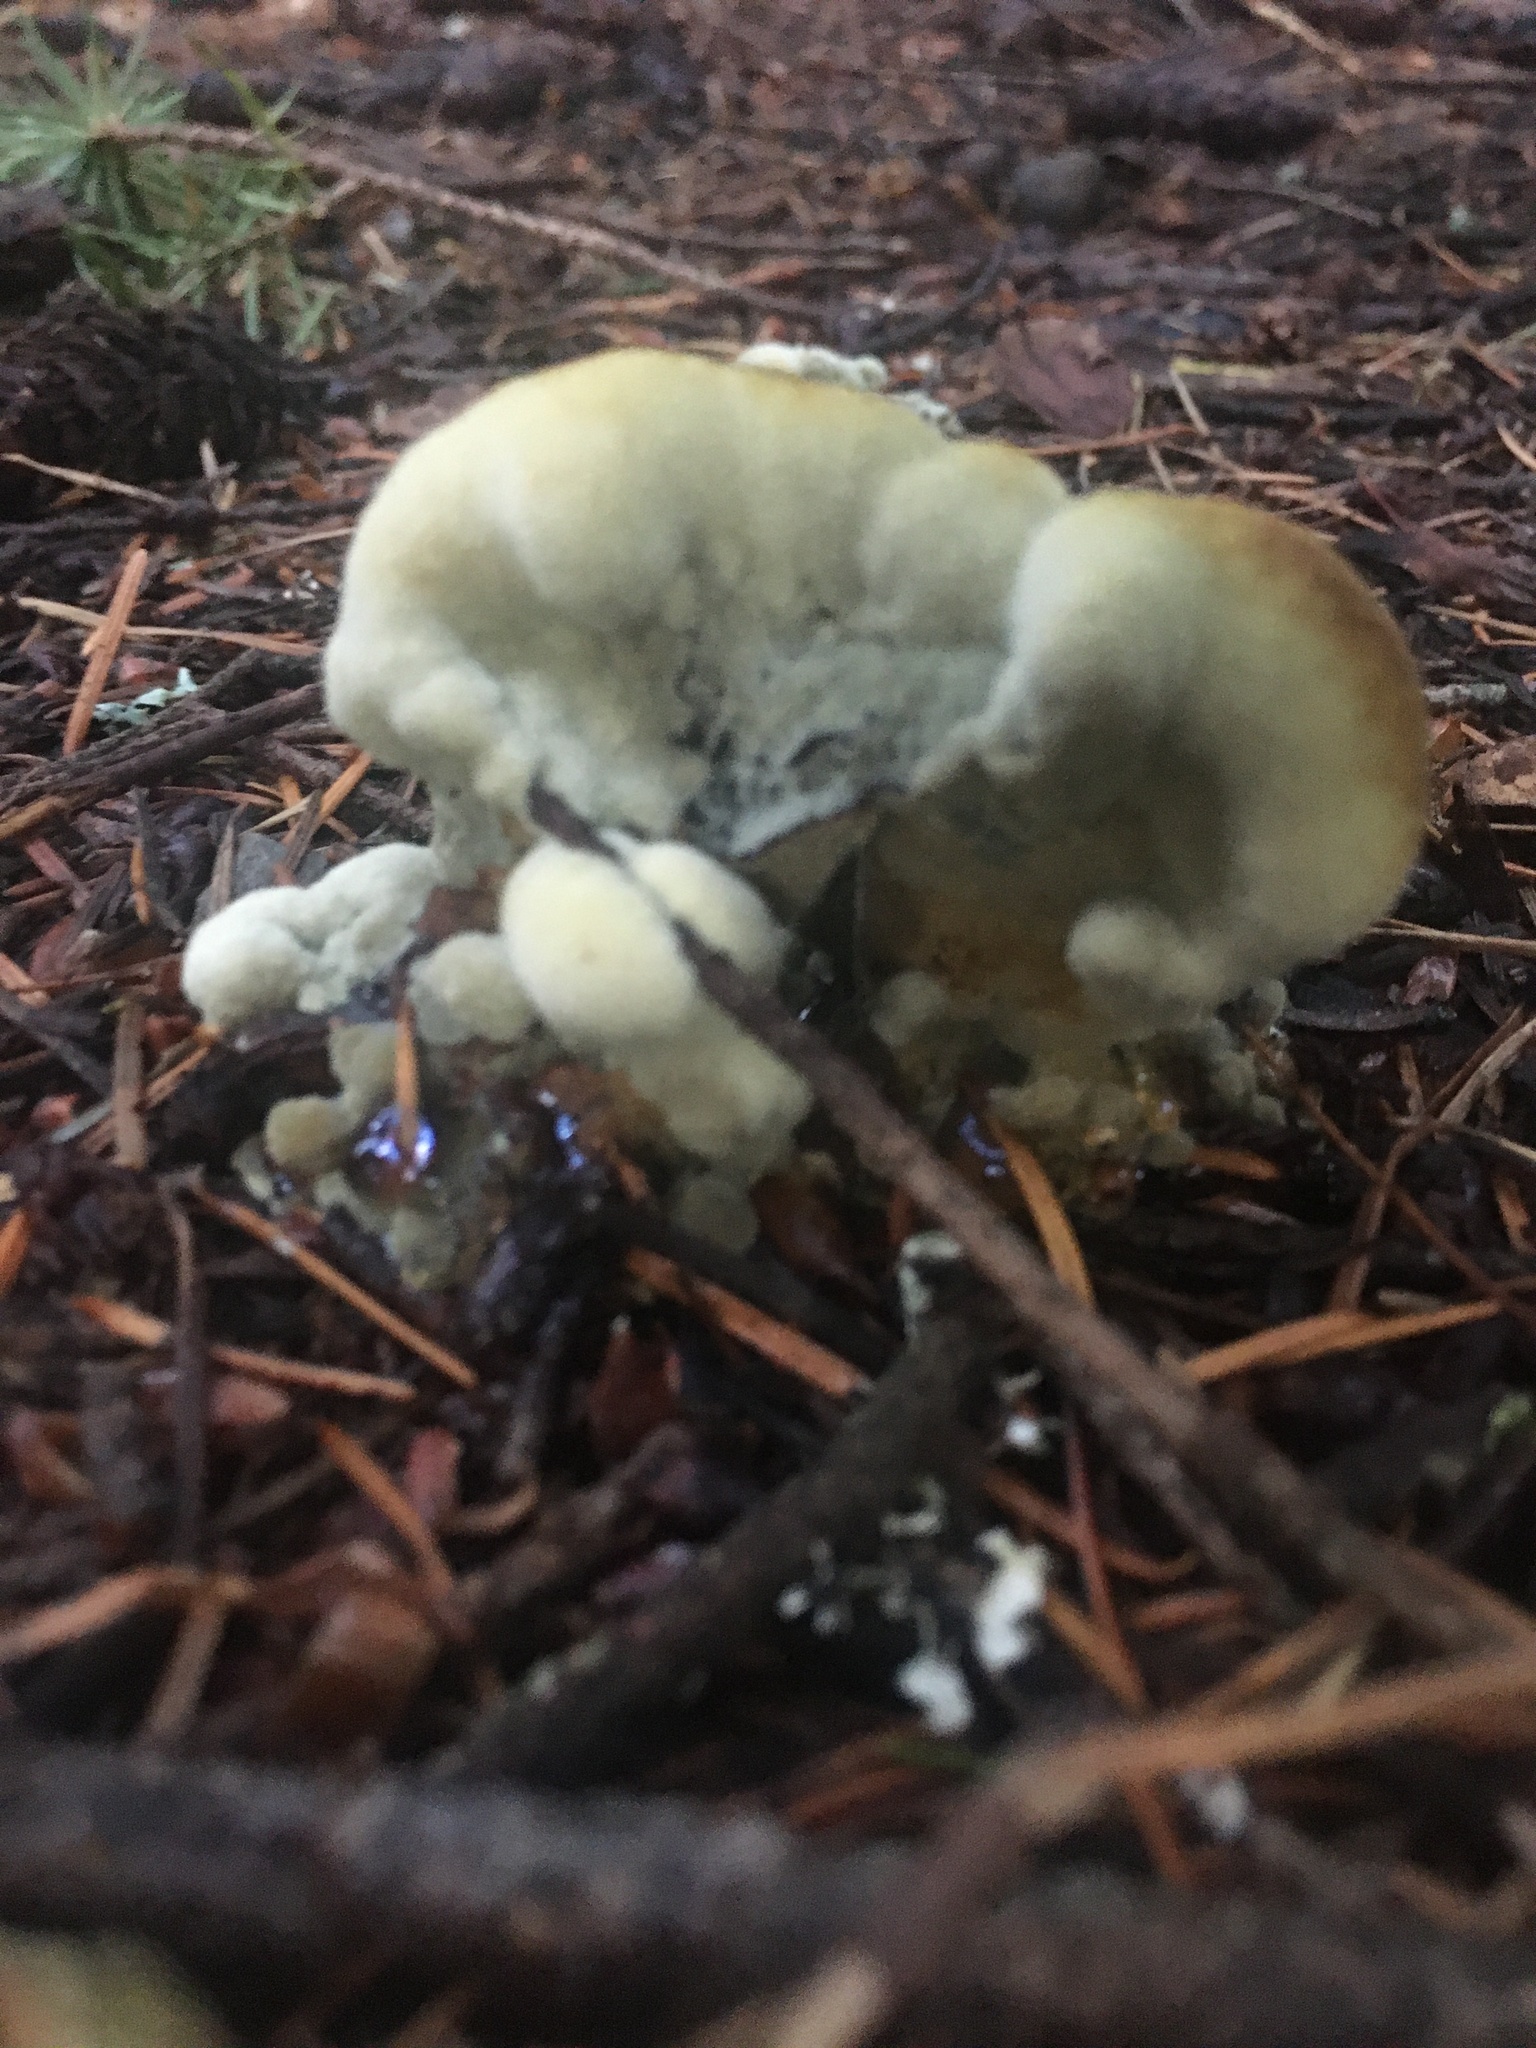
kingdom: Fungi
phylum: Basidiomycota
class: Agaricomycetes
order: Polyporales
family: Laetiporaceae
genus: Phaeolus
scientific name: Phaeolus schweinitzii
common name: Dyer's mazegill
